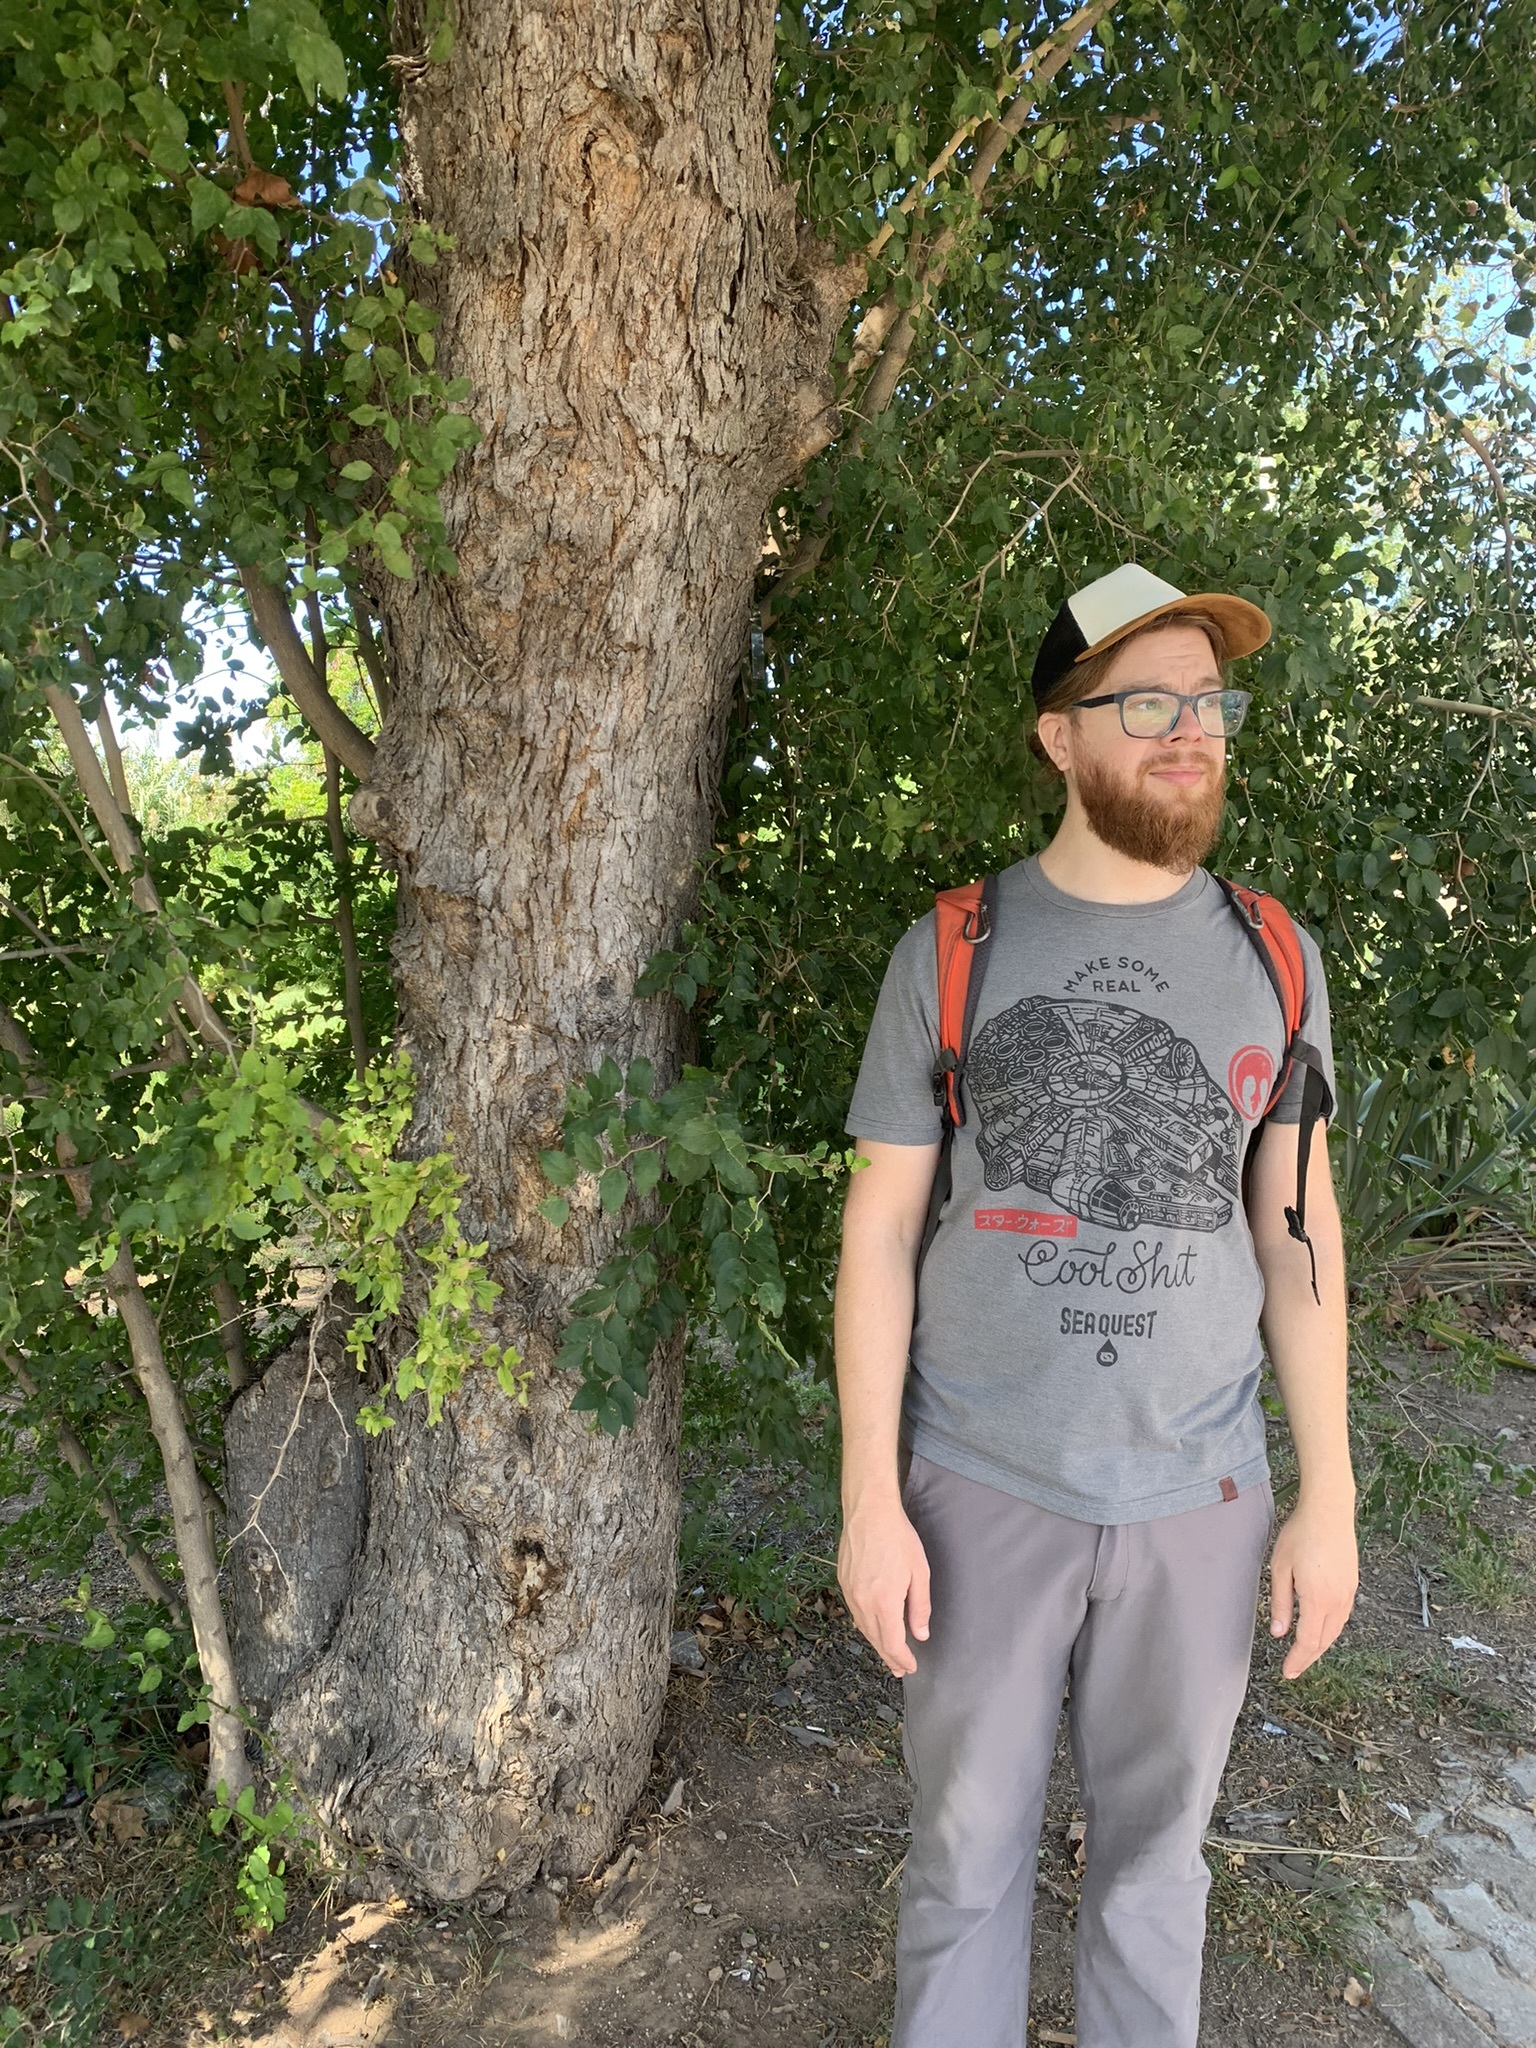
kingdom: Plantae
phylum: Tracheophyta
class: Magnoliopsida
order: Rosales
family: Cannabaceae
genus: Celtis
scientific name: Celtis tala
